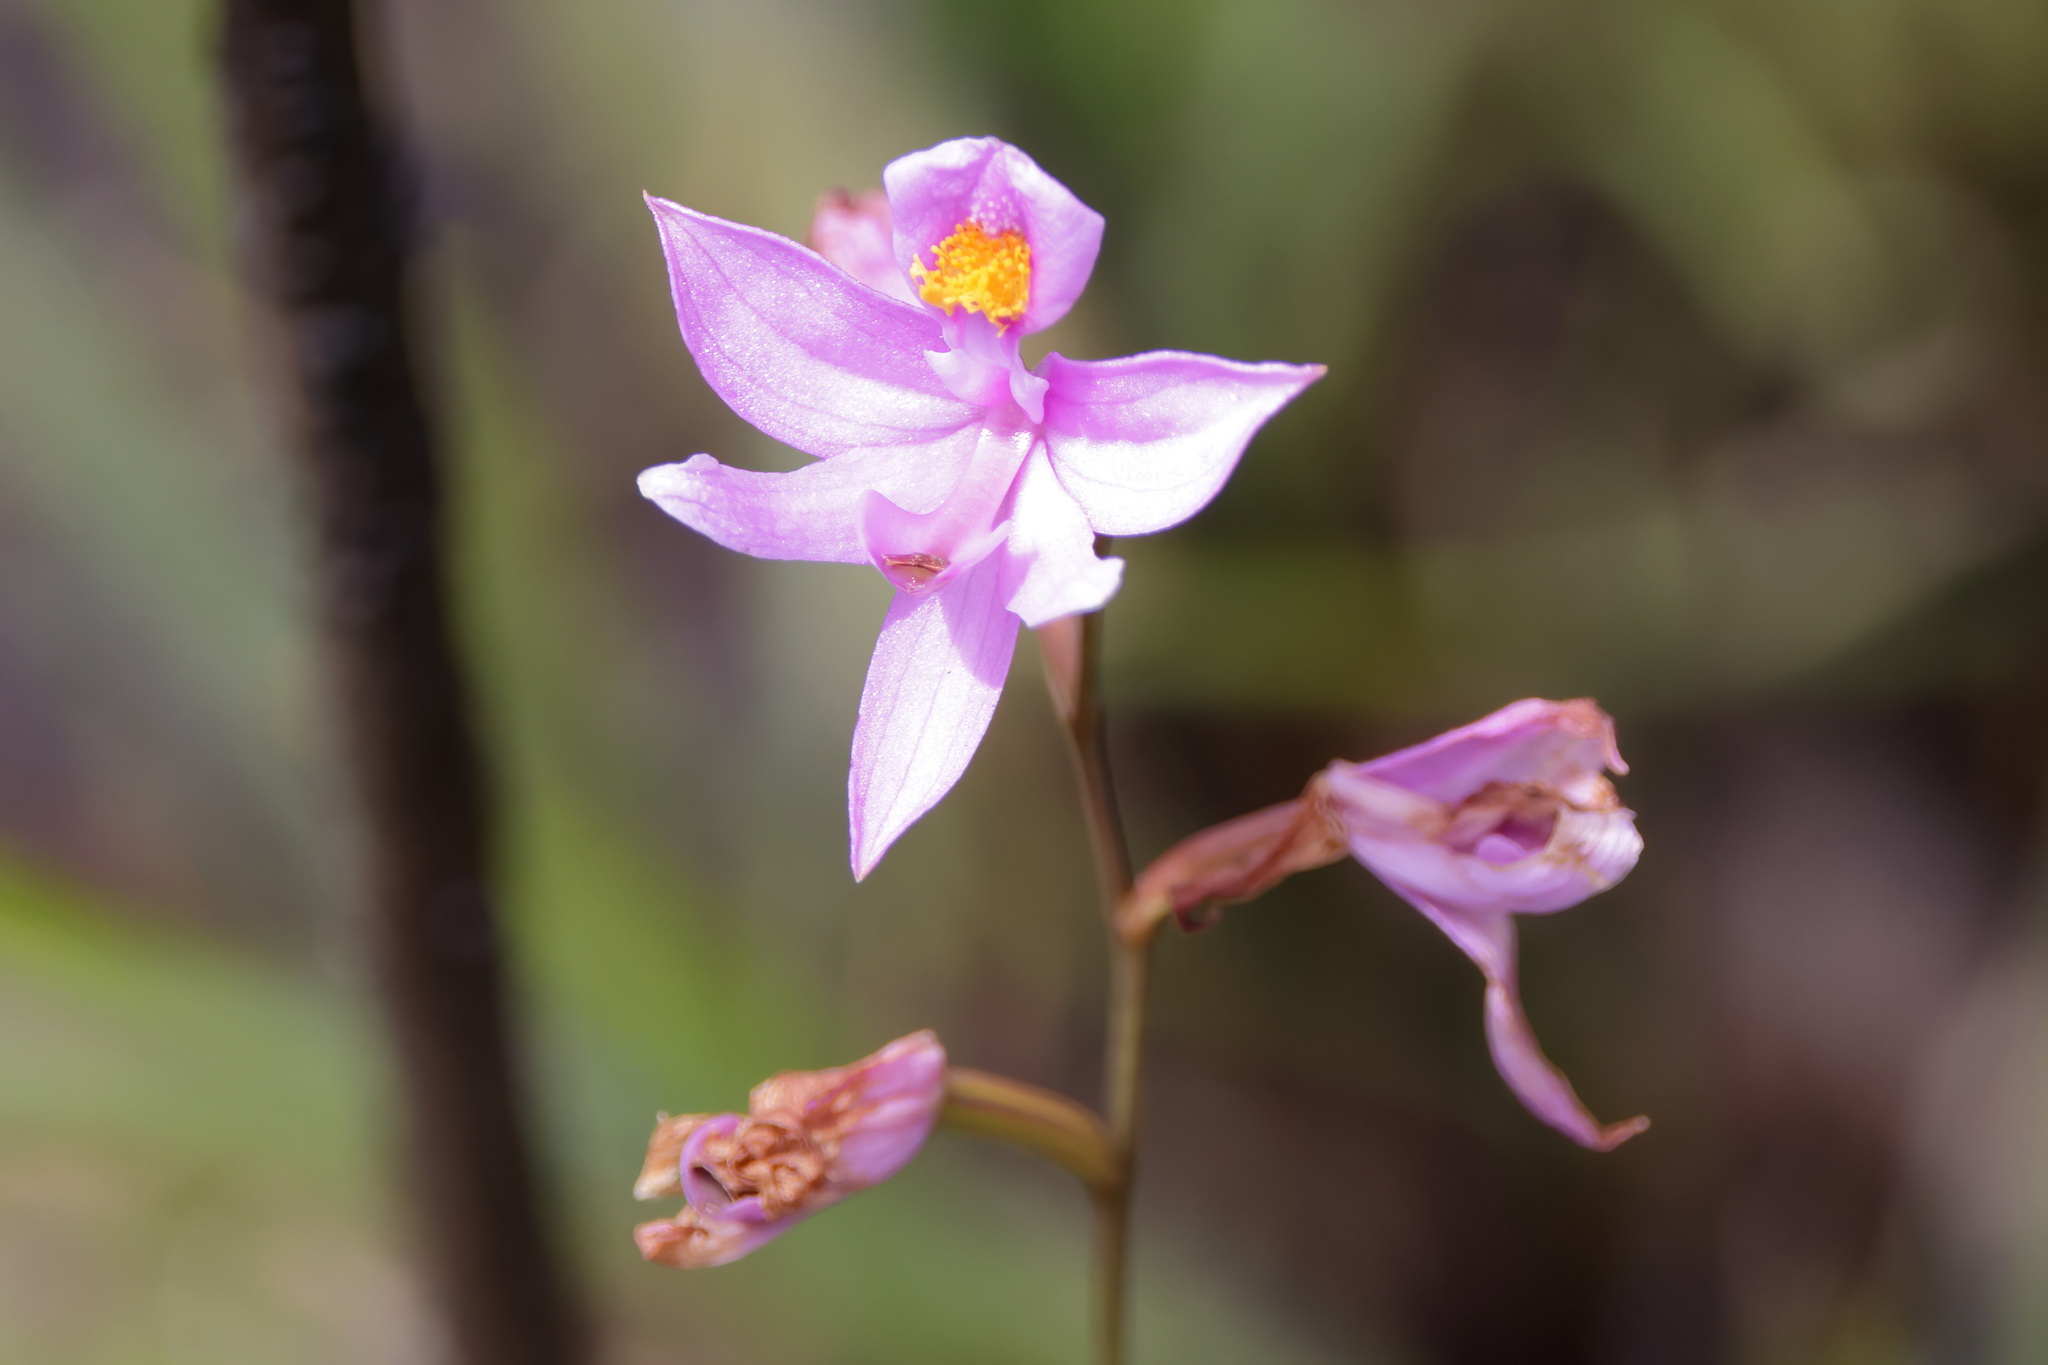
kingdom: Plantae
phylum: Tracheophyta
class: Liliopsida
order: Asparagales
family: Orchidaceae
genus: Calopogon
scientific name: Calopogon barbatus
